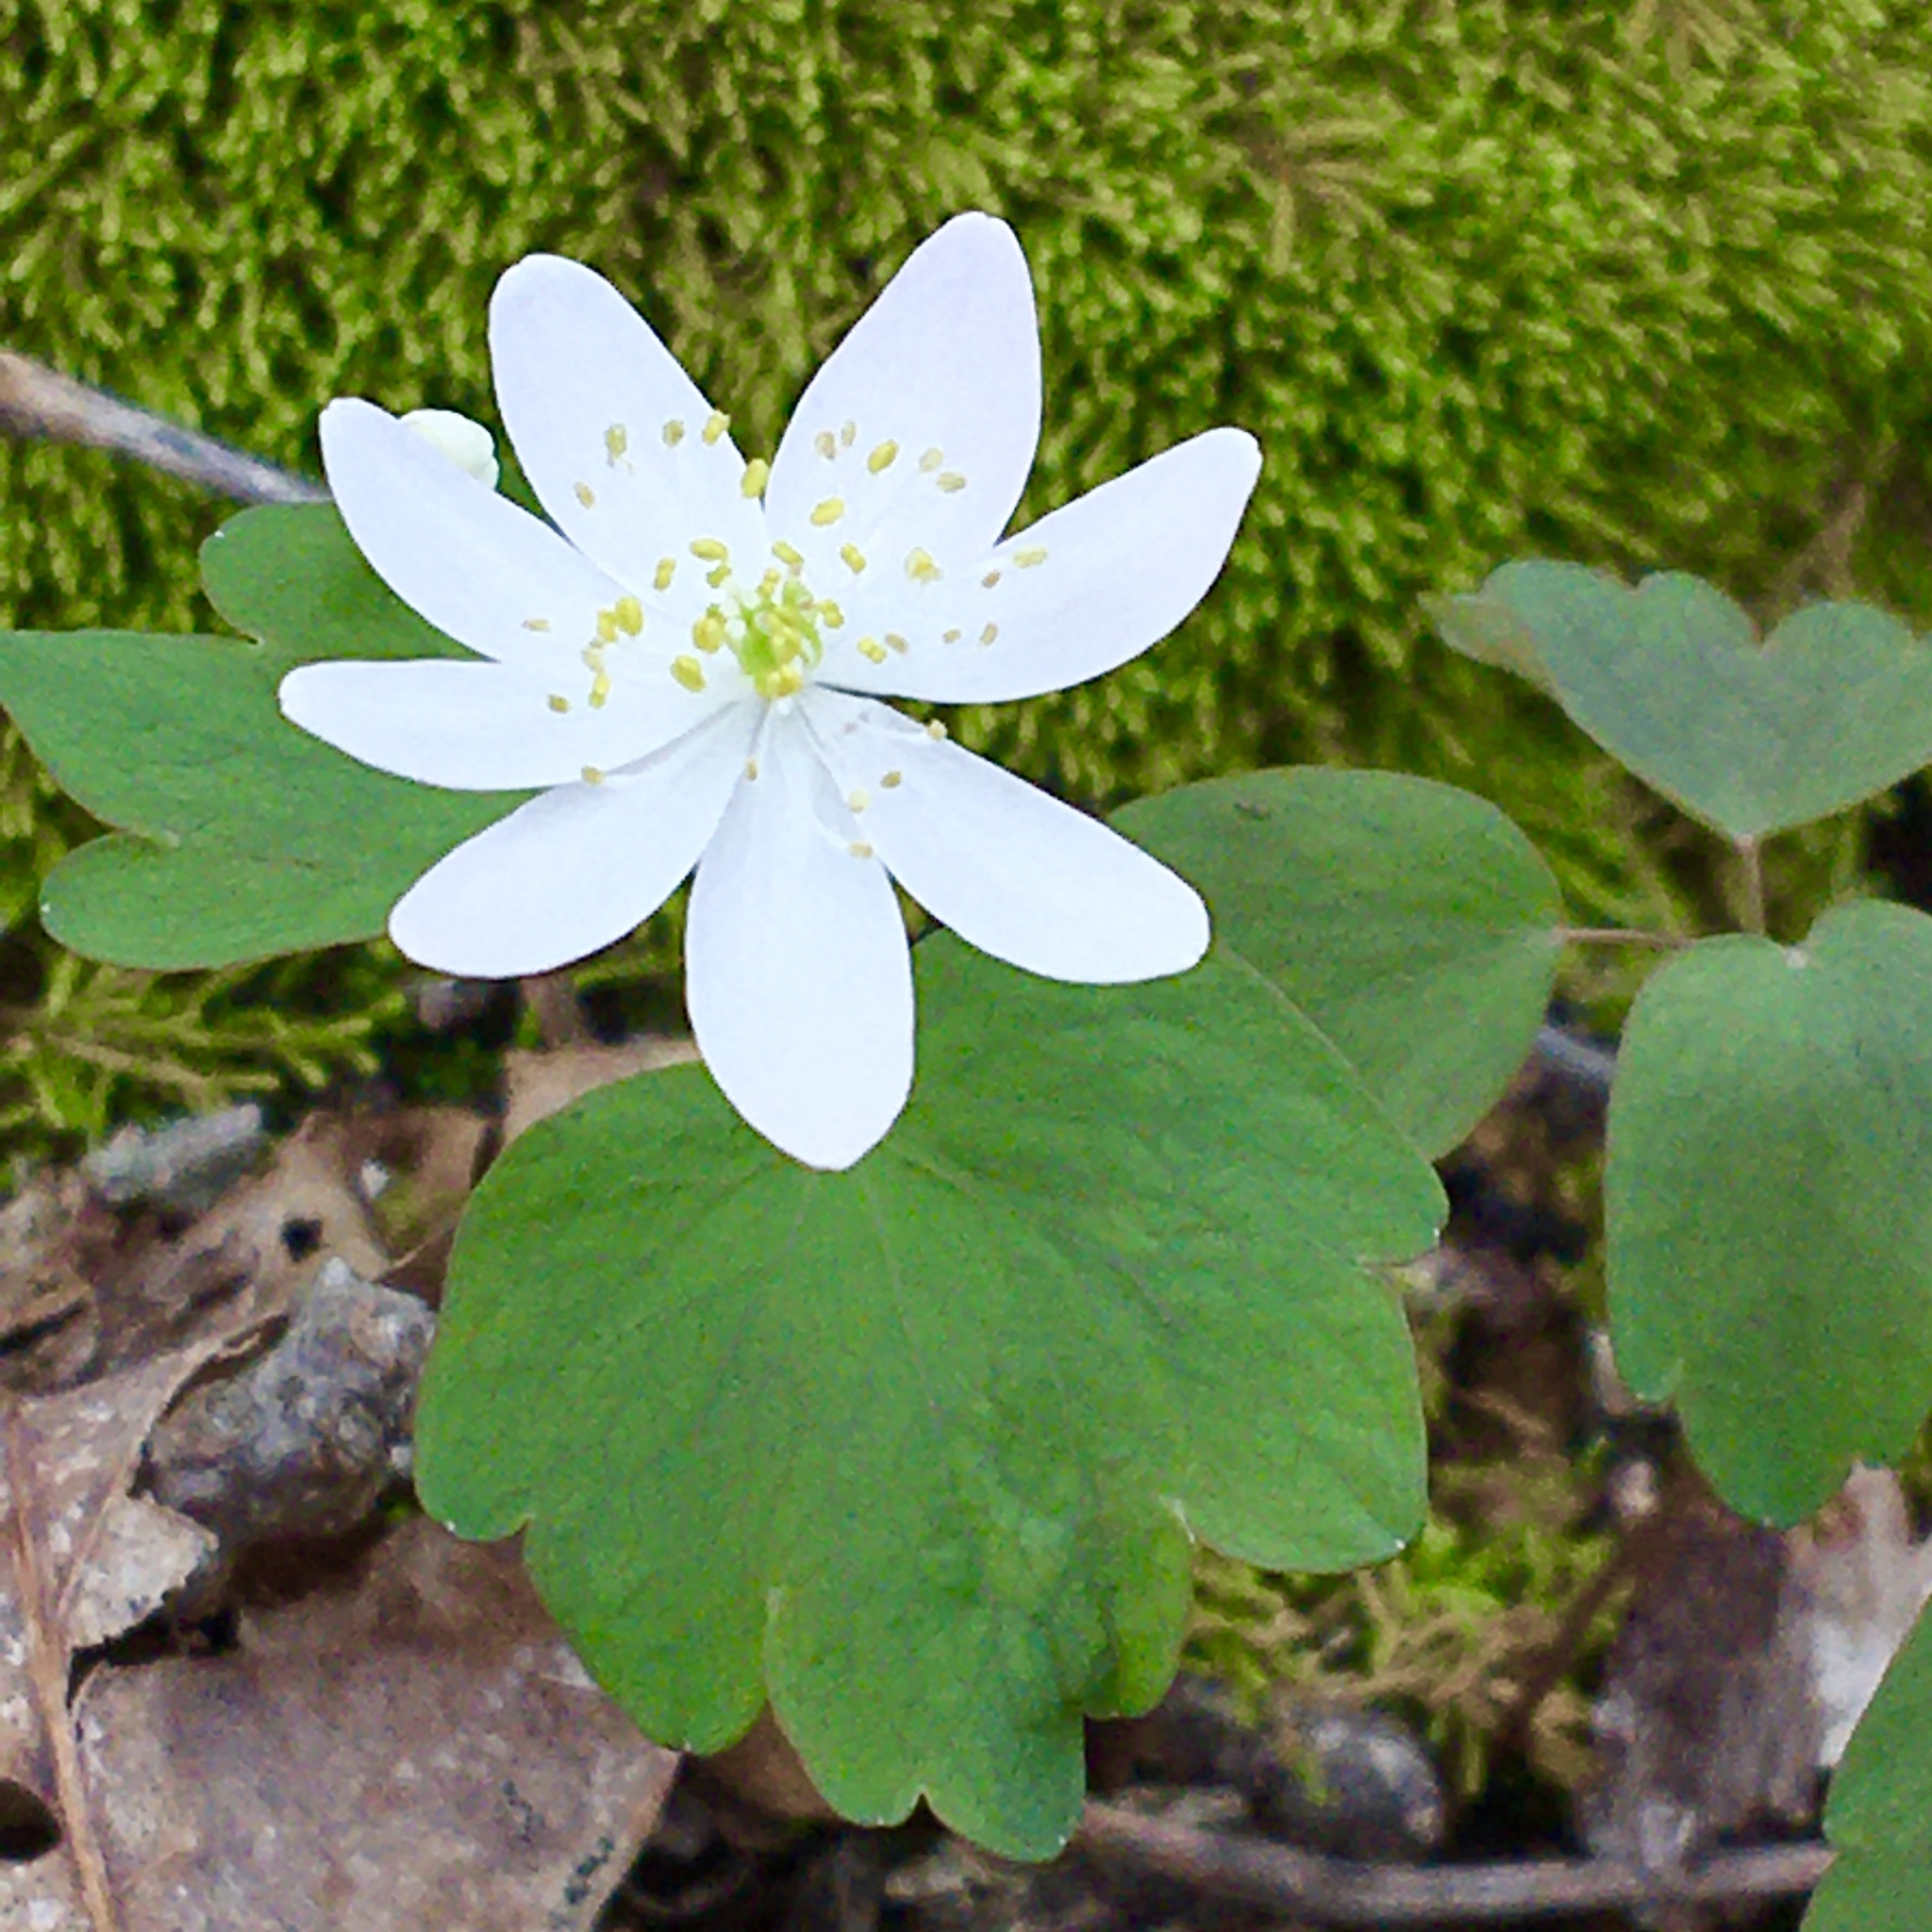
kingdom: Plantae
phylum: Tracheophyta
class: Magnoliopsida
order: Ranunculales
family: Ranunculaceae
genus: Thalictrum
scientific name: Thalictrum thalictroides
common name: Rue-anemone
